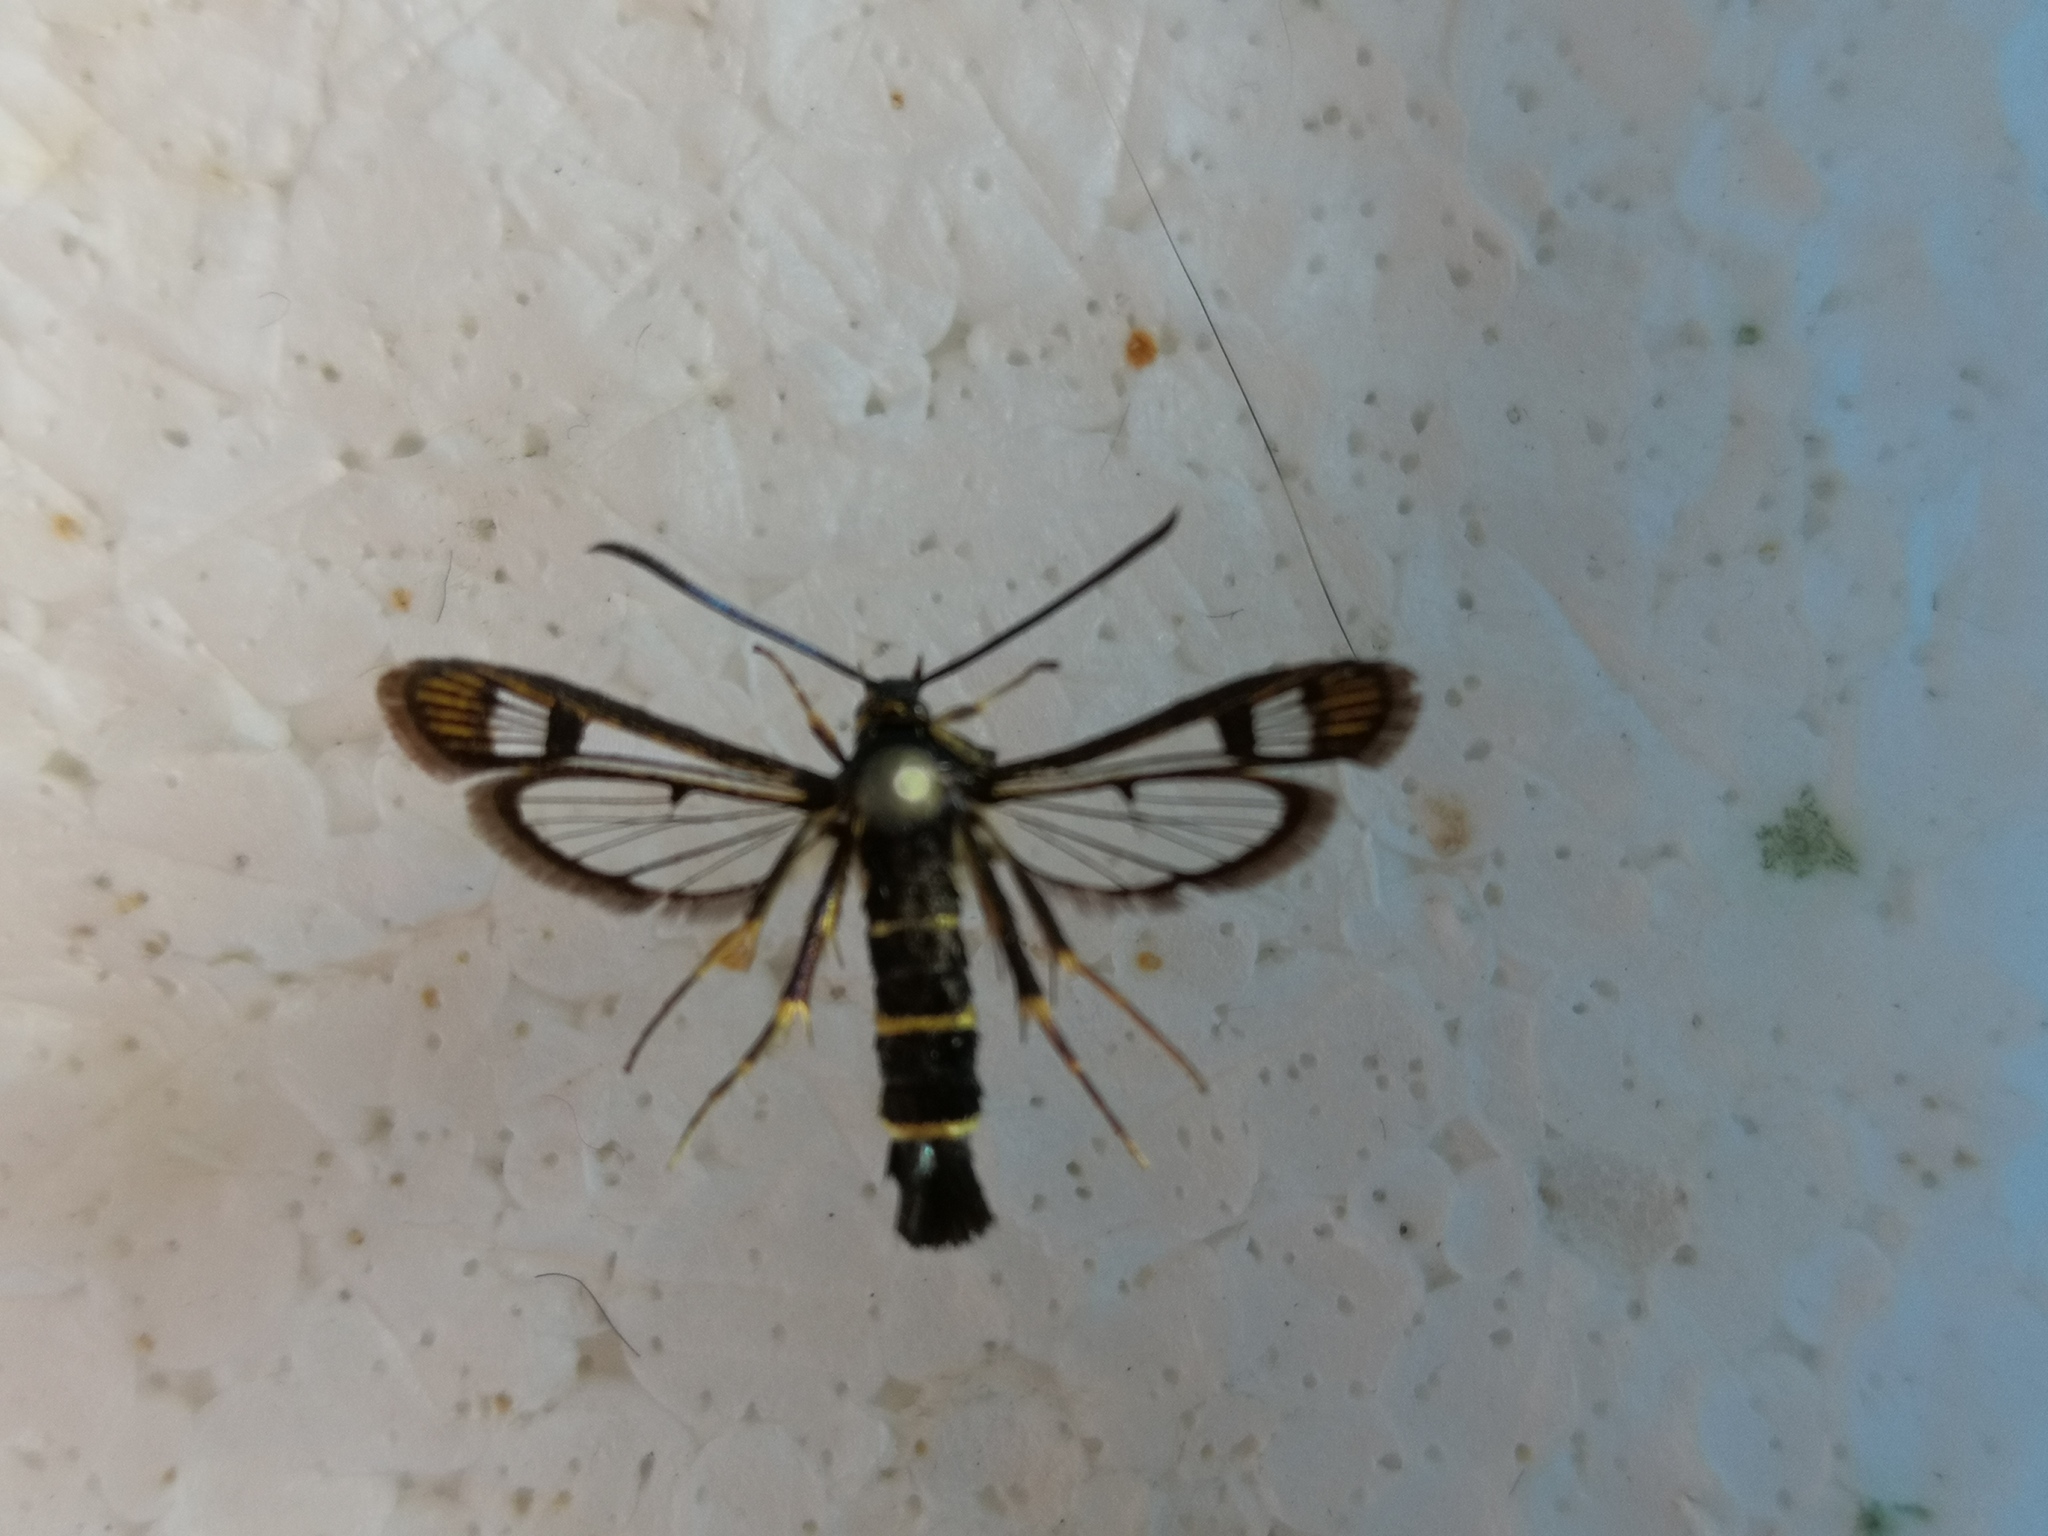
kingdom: Animalia
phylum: Arthropoda
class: Insecta
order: Lepidoptera
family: Sesiidae
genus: Synanthedon
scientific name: Synanthedon tipuliformis
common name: Currant clearwing
